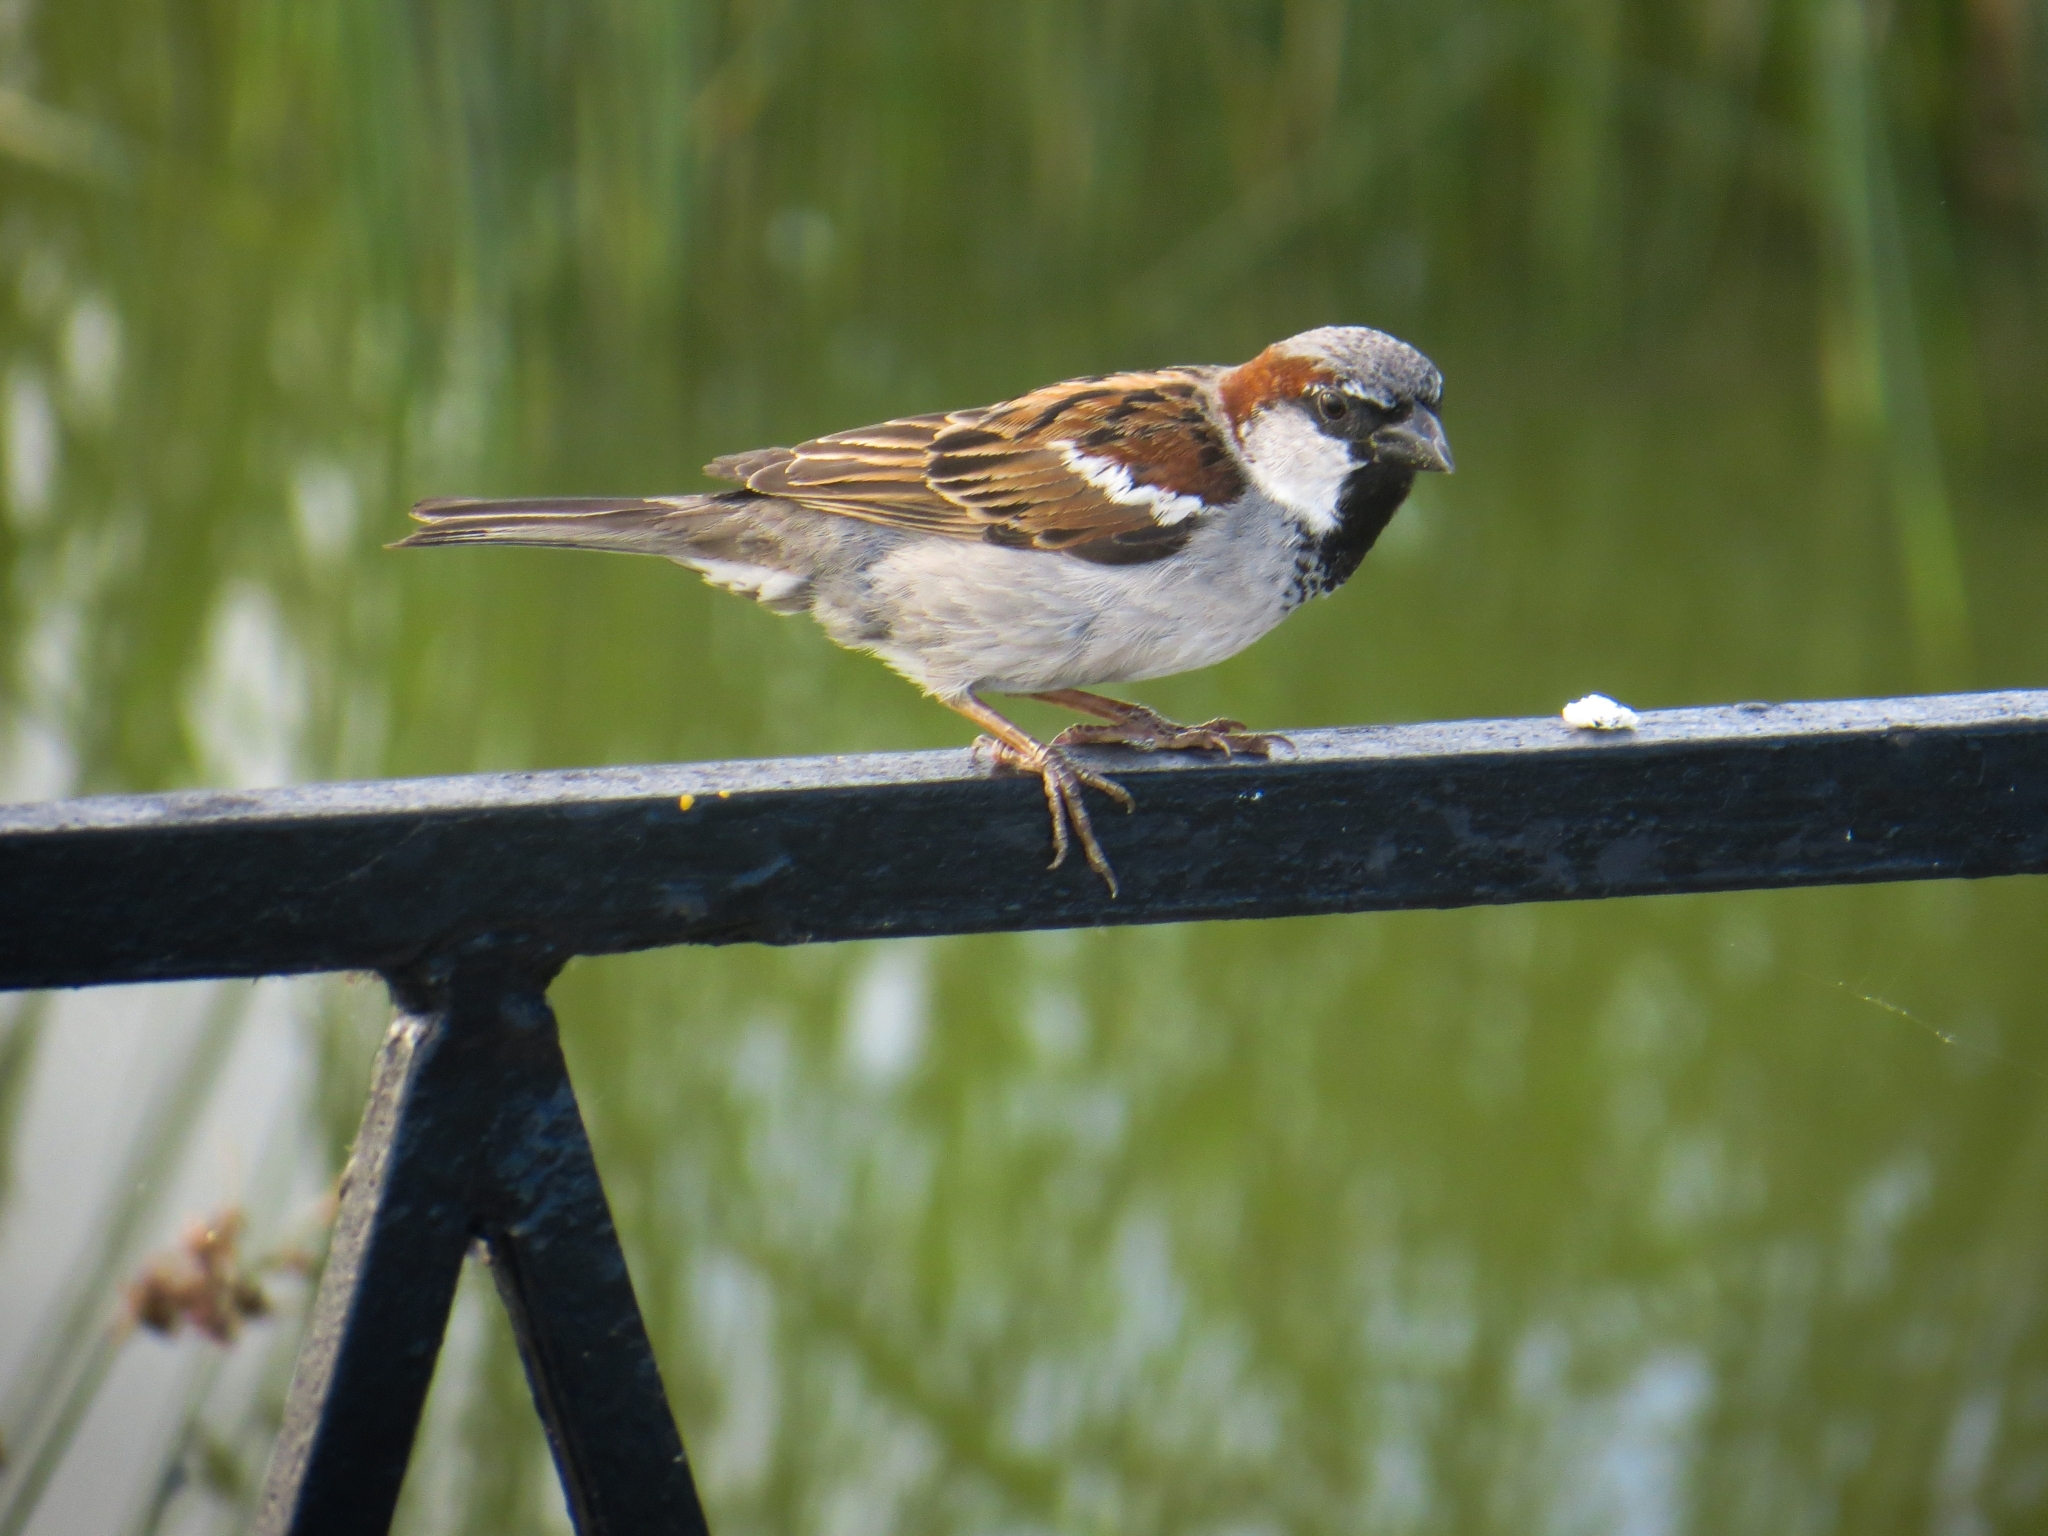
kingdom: Animalia
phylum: Chordata
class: Aves
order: Passeriformes
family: Passeridae
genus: Passer
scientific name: Passer domesticus
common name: House sparrow
